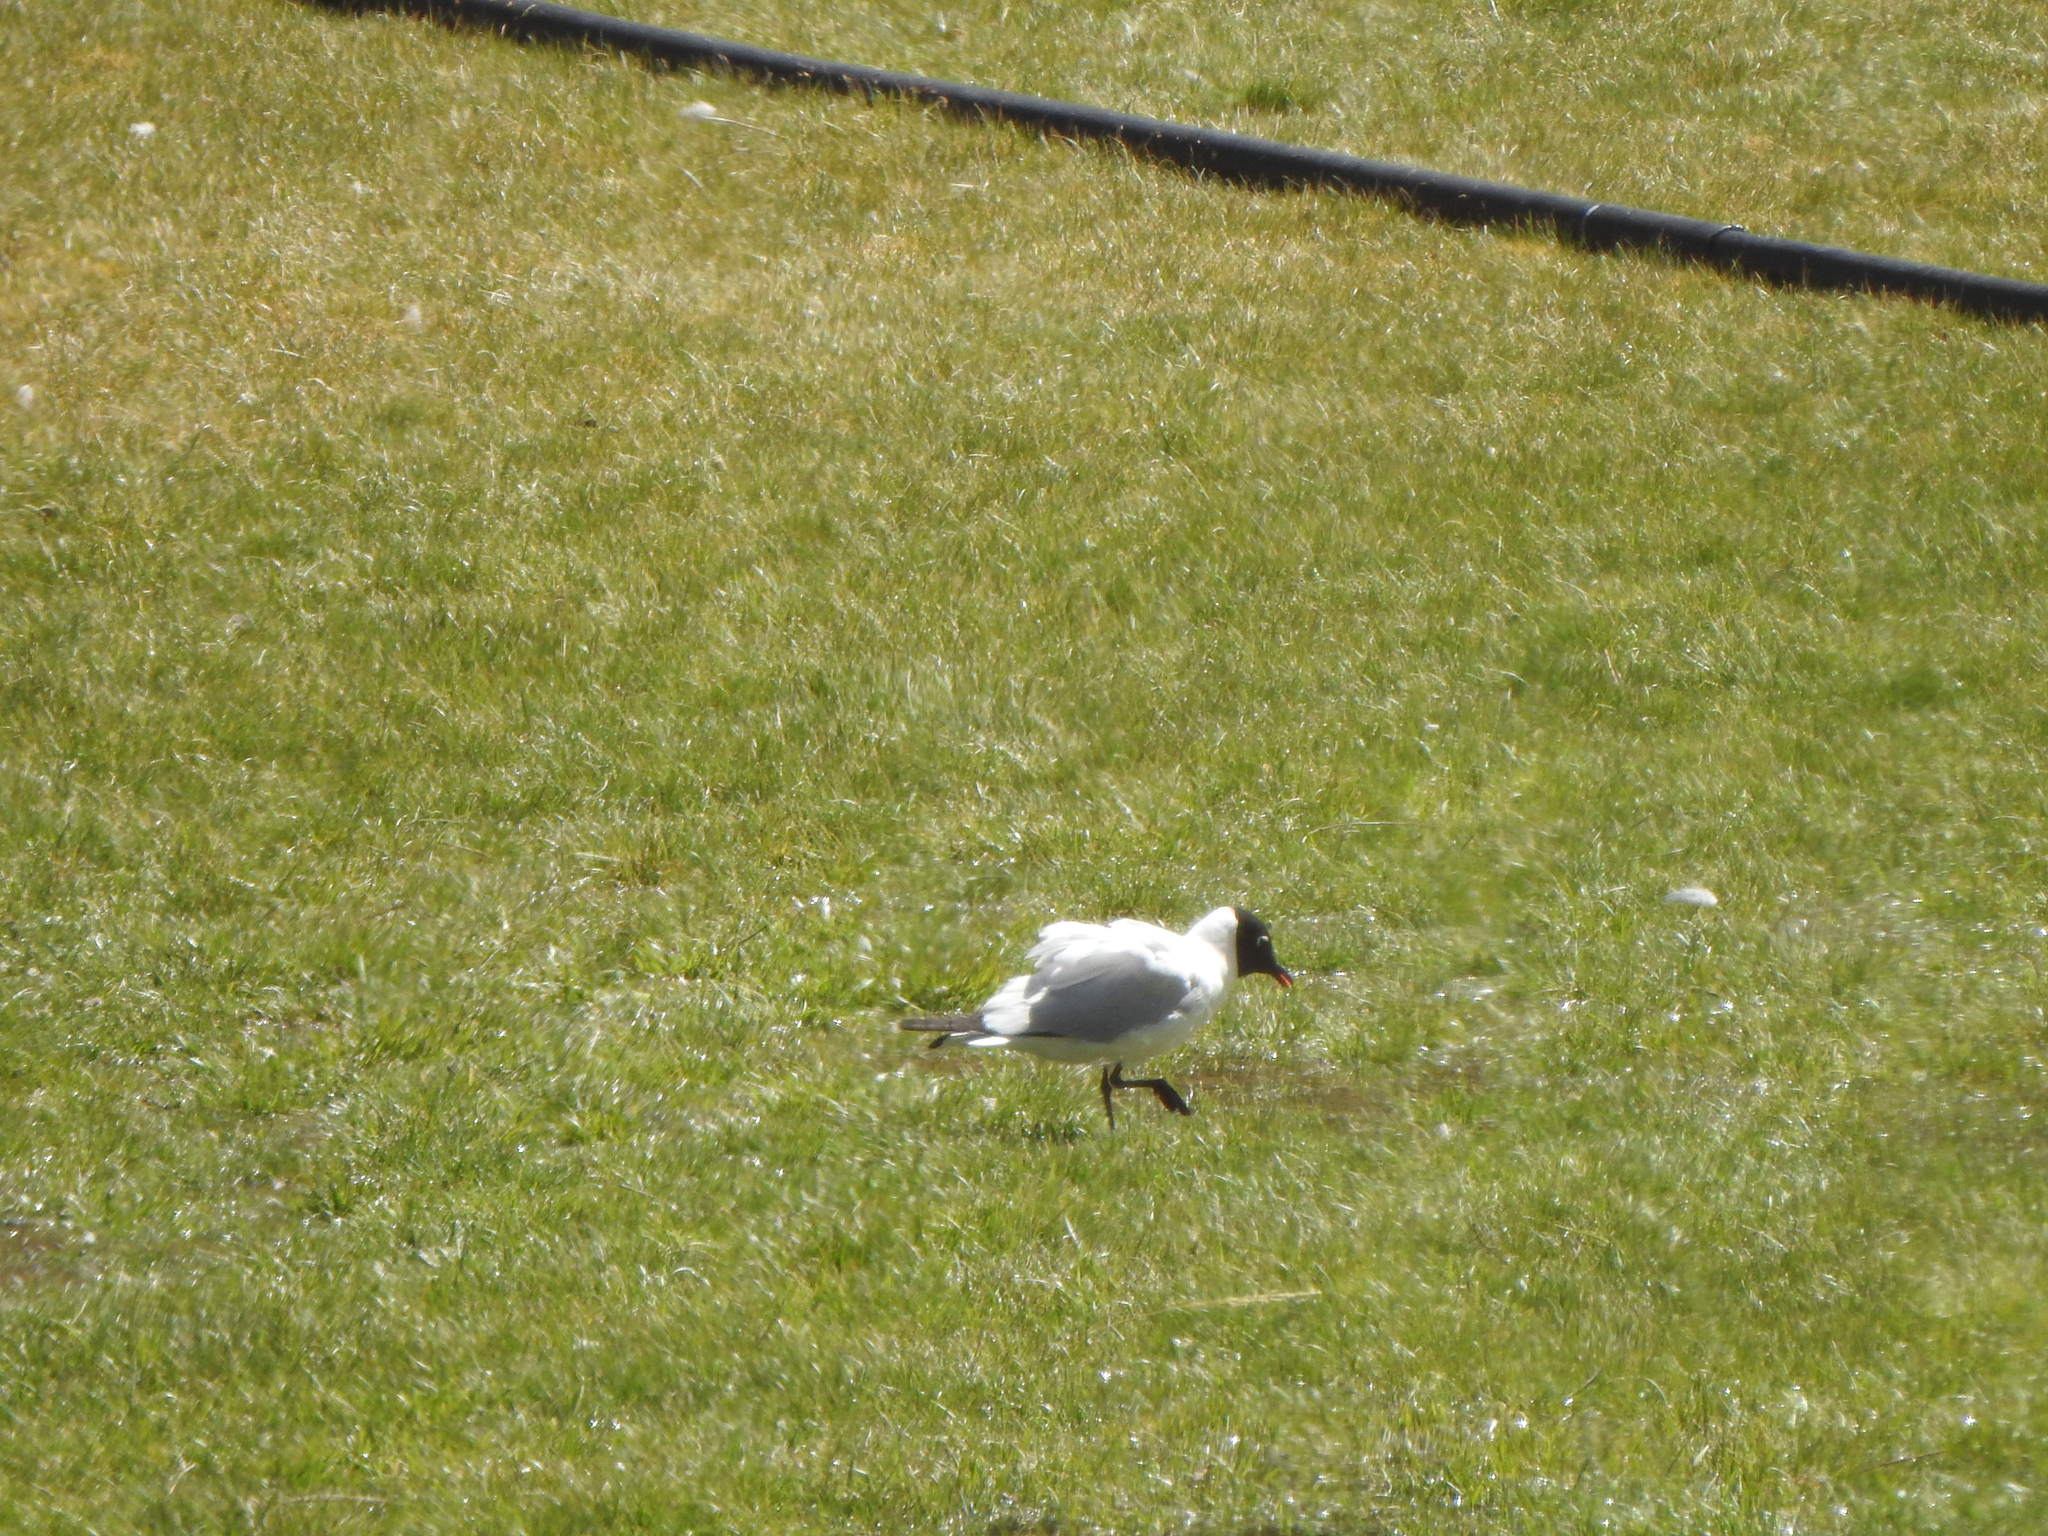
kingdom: Animalia
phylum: Chordata
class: Aves
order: Charadriiformes
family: Laridae
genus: Chroicocephalus
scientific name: Chroicocephalus serranus
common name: Andean gull
